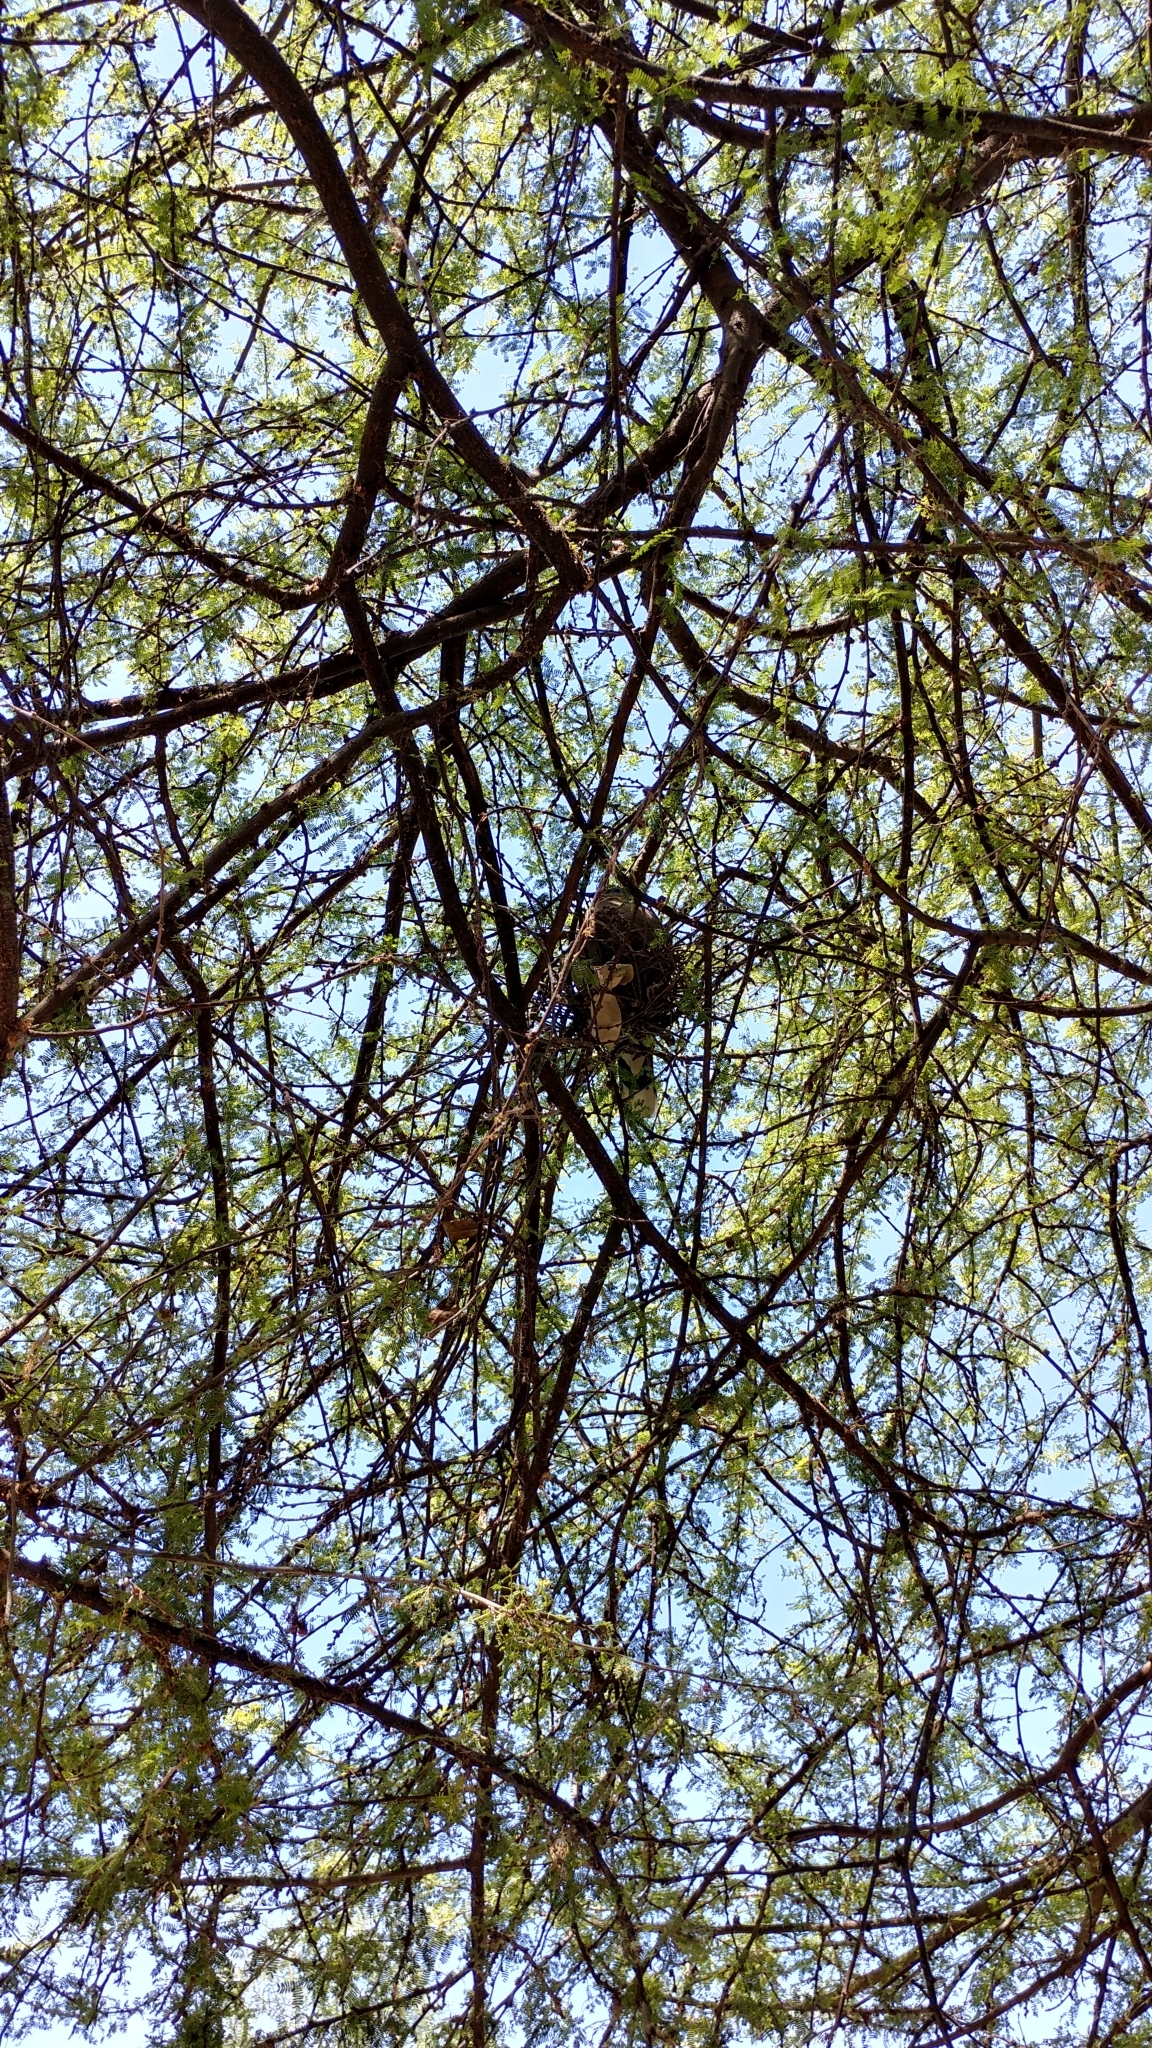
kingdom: Animalia
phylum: Chordata
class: Aves
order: Columbiformes
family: Columbidae
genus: Zenaida
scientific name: Zenaida asiatica
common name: White-winged dove
